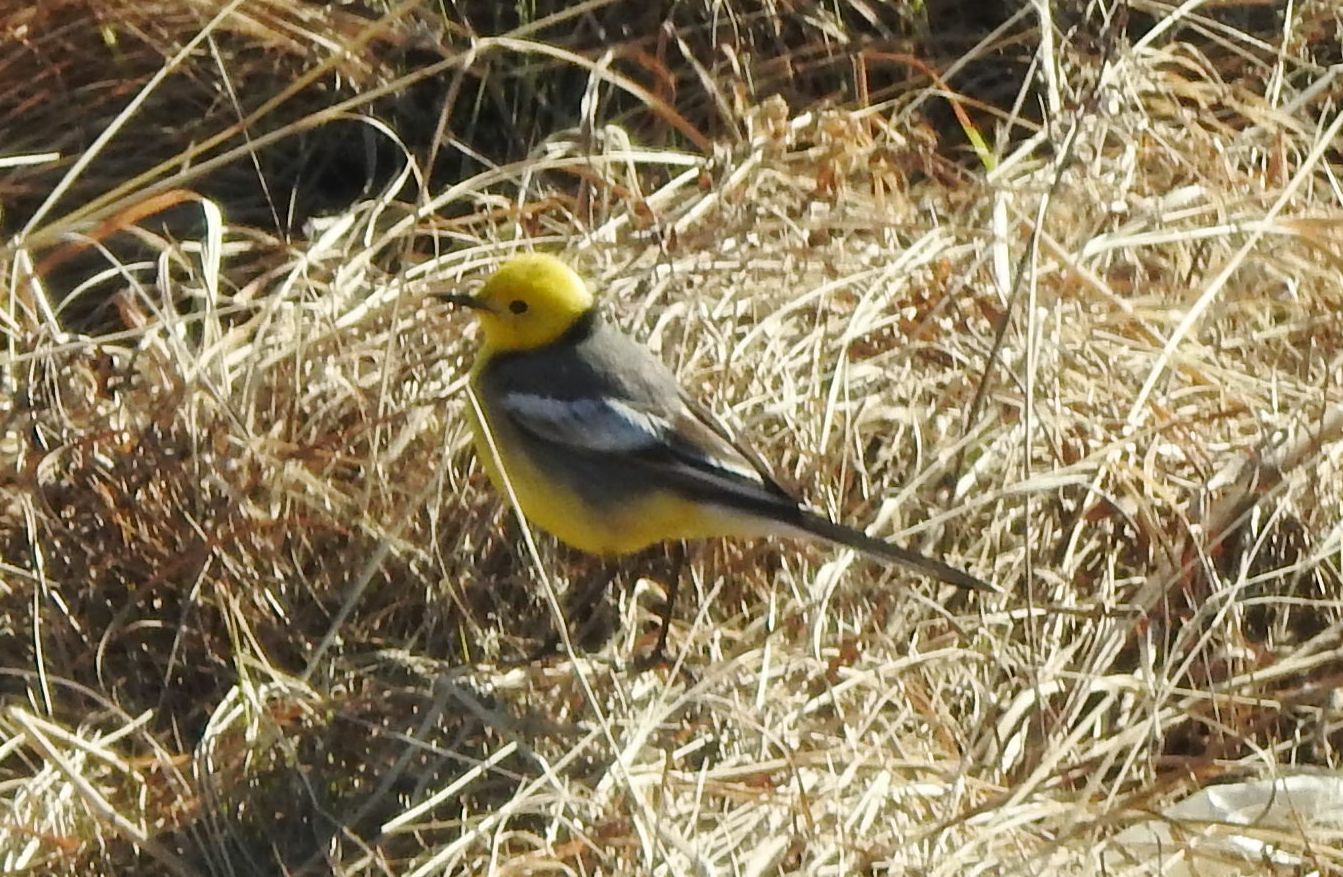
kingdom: Animalia
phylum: Chordata
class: Aves
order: Passeriformes
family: Motacillidae
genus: Motacilla
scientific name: Motacilla citreola
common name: Citrine wagtail
